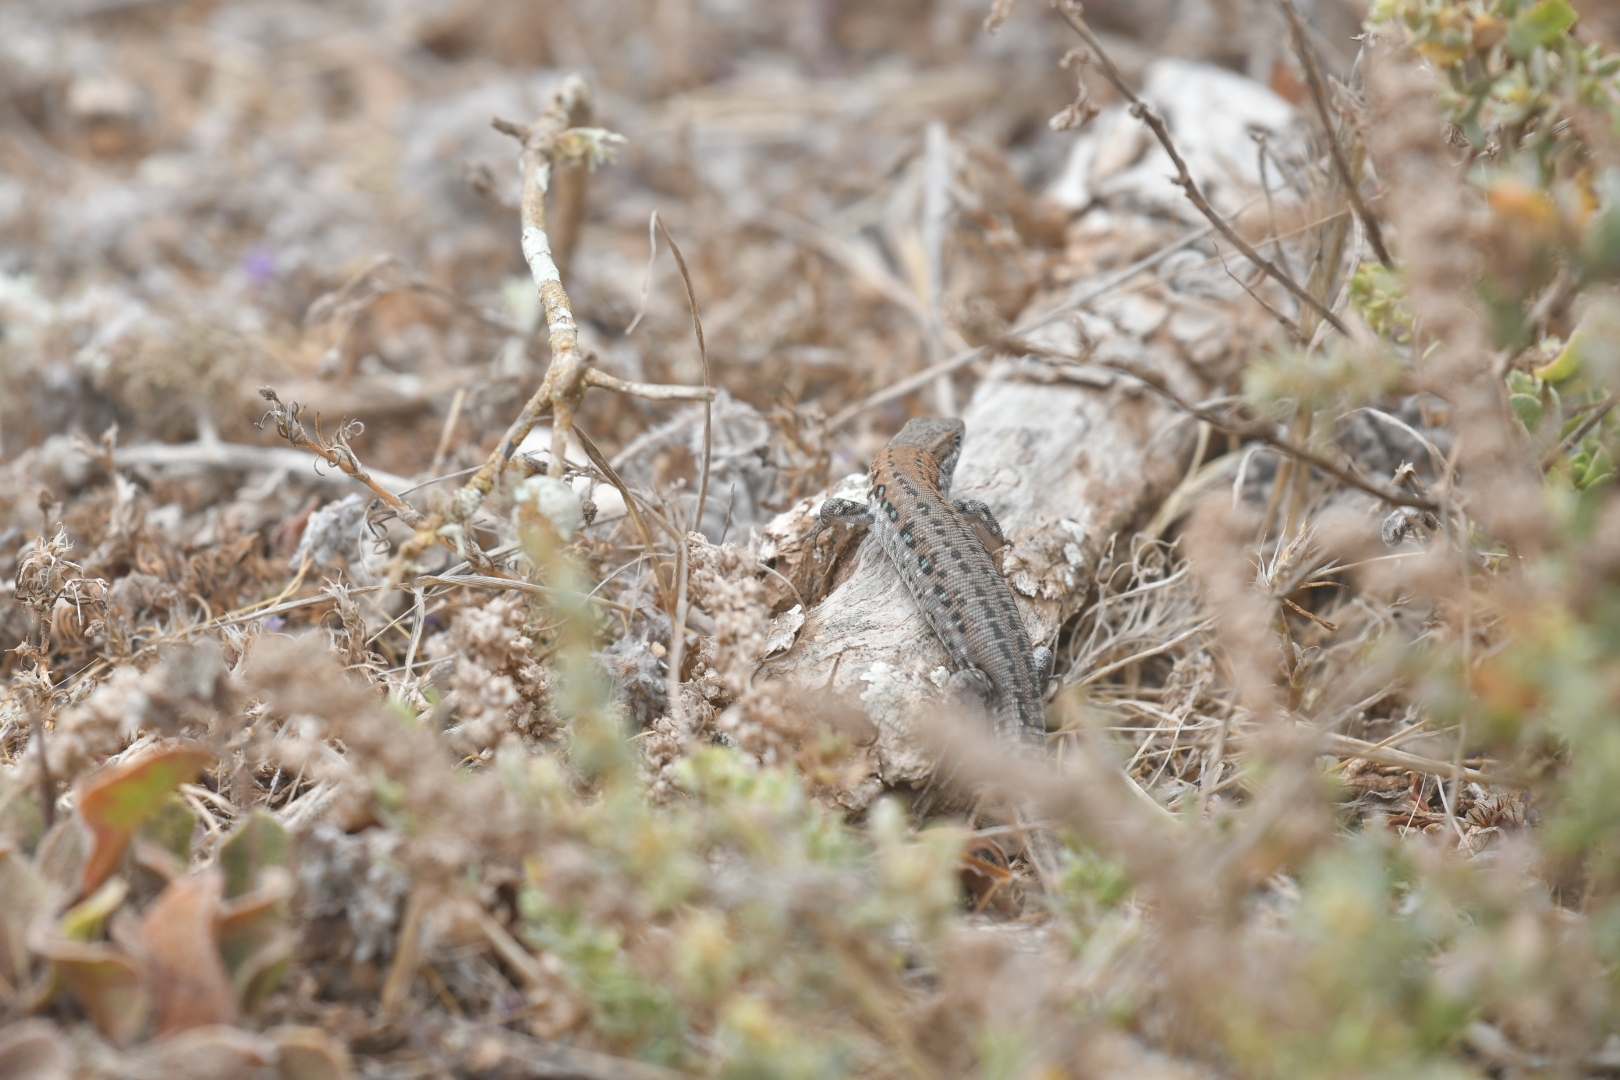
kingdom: Animalia
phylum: Chordata
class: Squamata
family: Lacertidae
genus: Gallotia
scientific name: Gallotia atlantica
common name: Atlantic lizard
